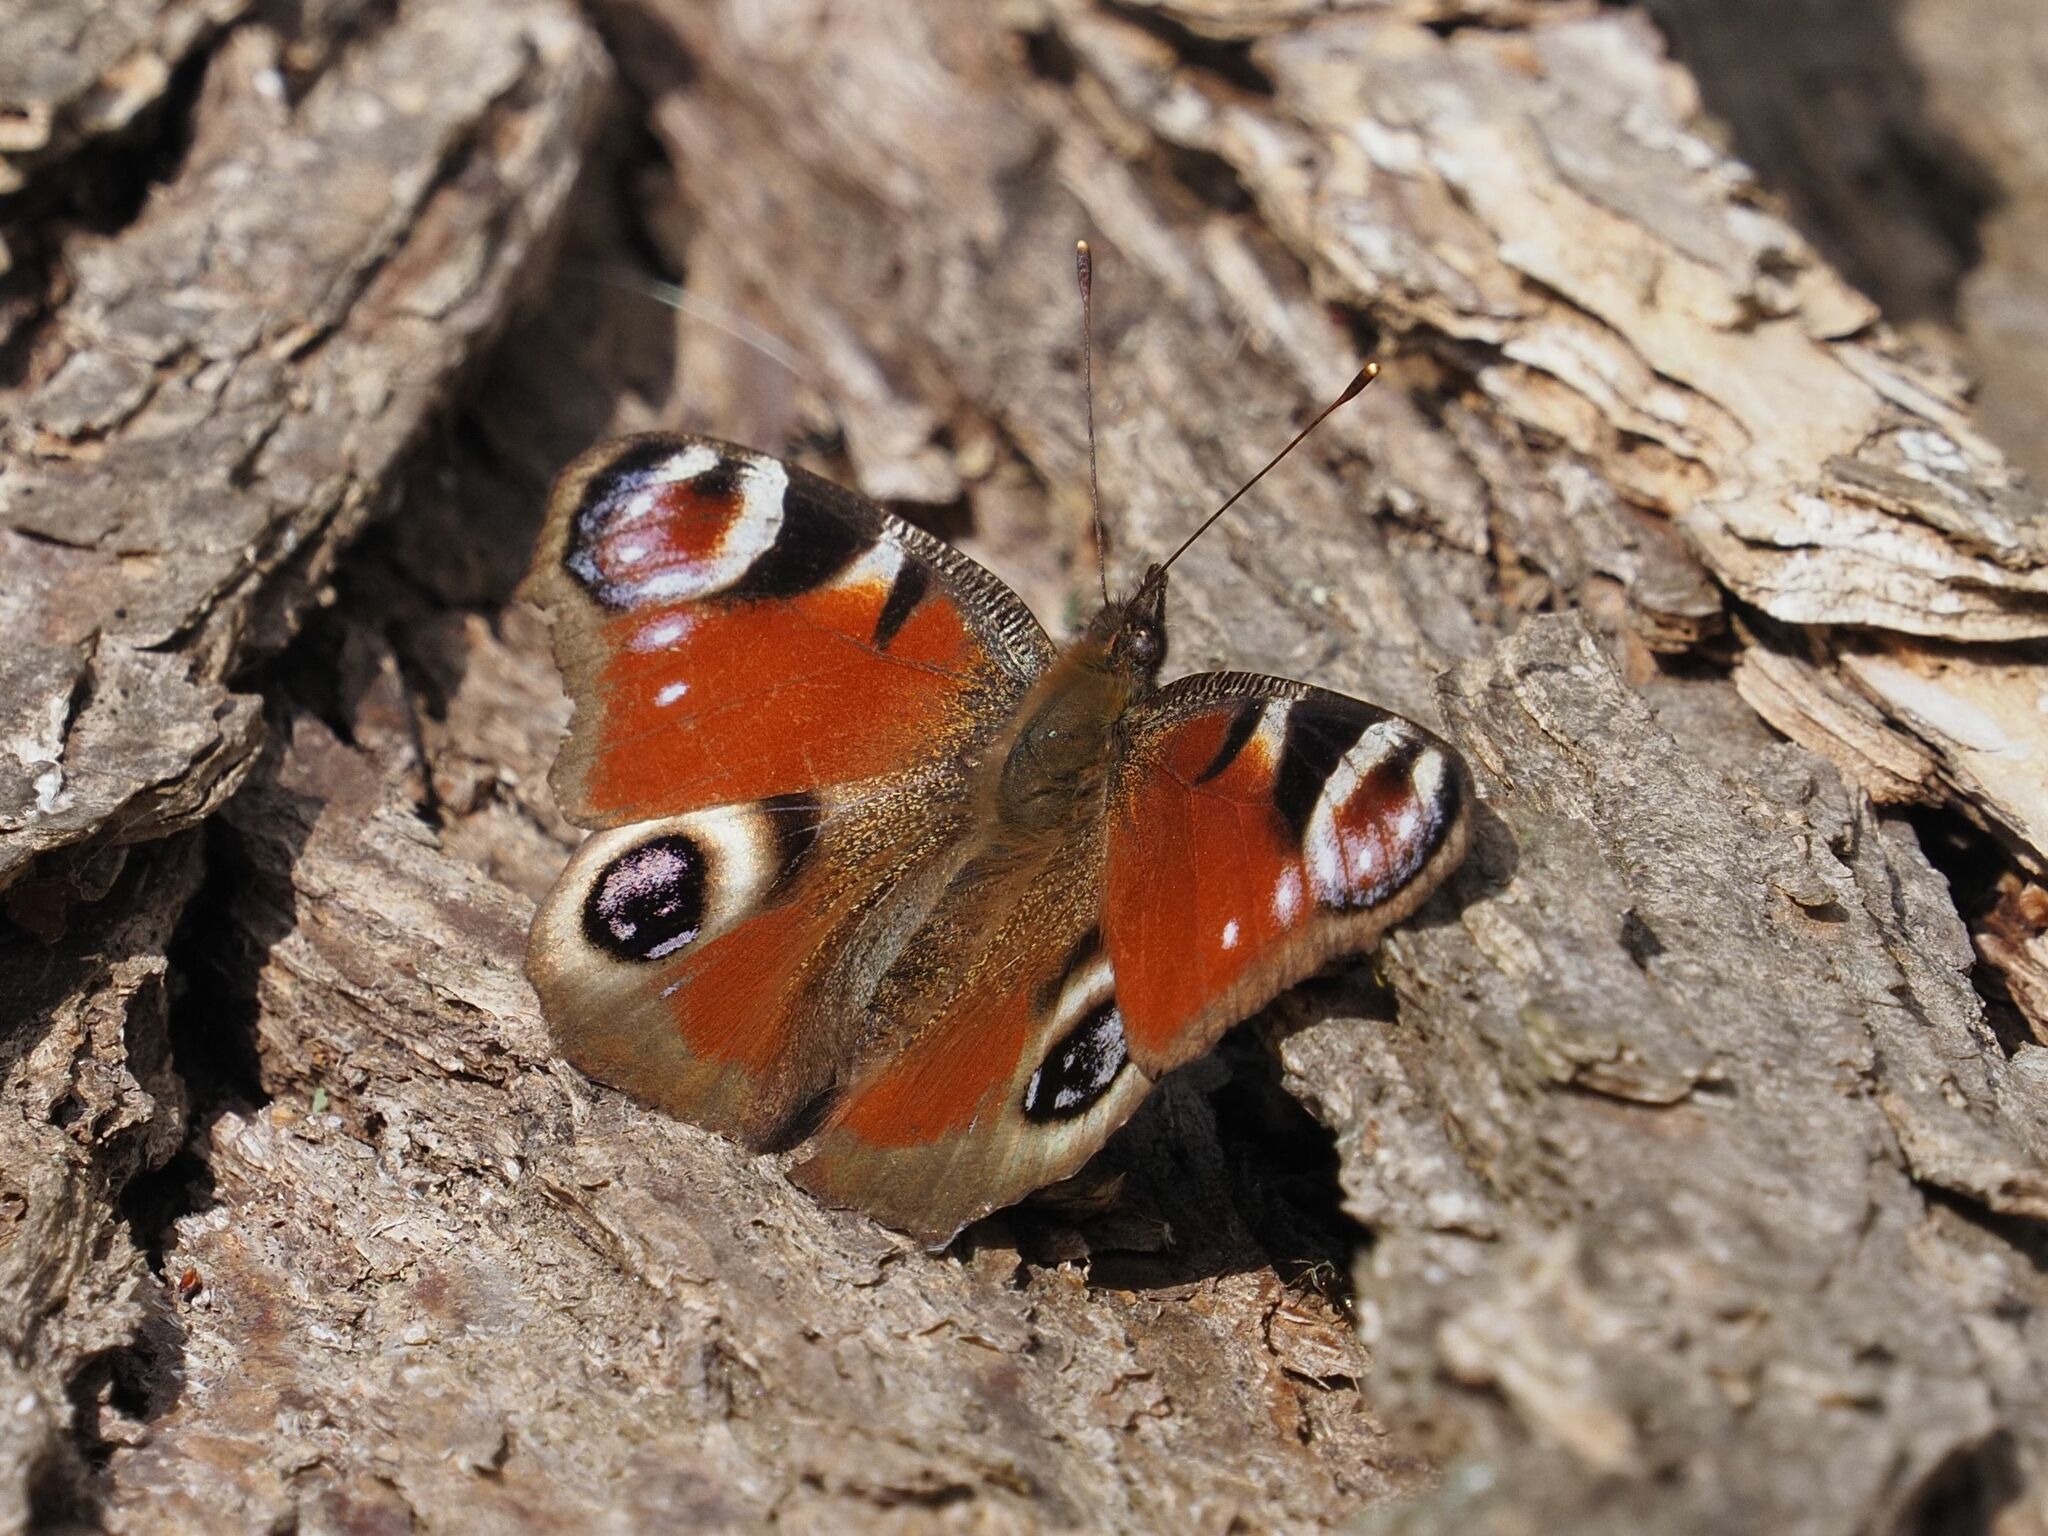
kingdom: Animalia
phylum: Arthropoda
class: Insecta
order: Lepidoptera
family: Nymphalidae
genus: Aglais
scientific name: Aglais io
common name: Peacock
